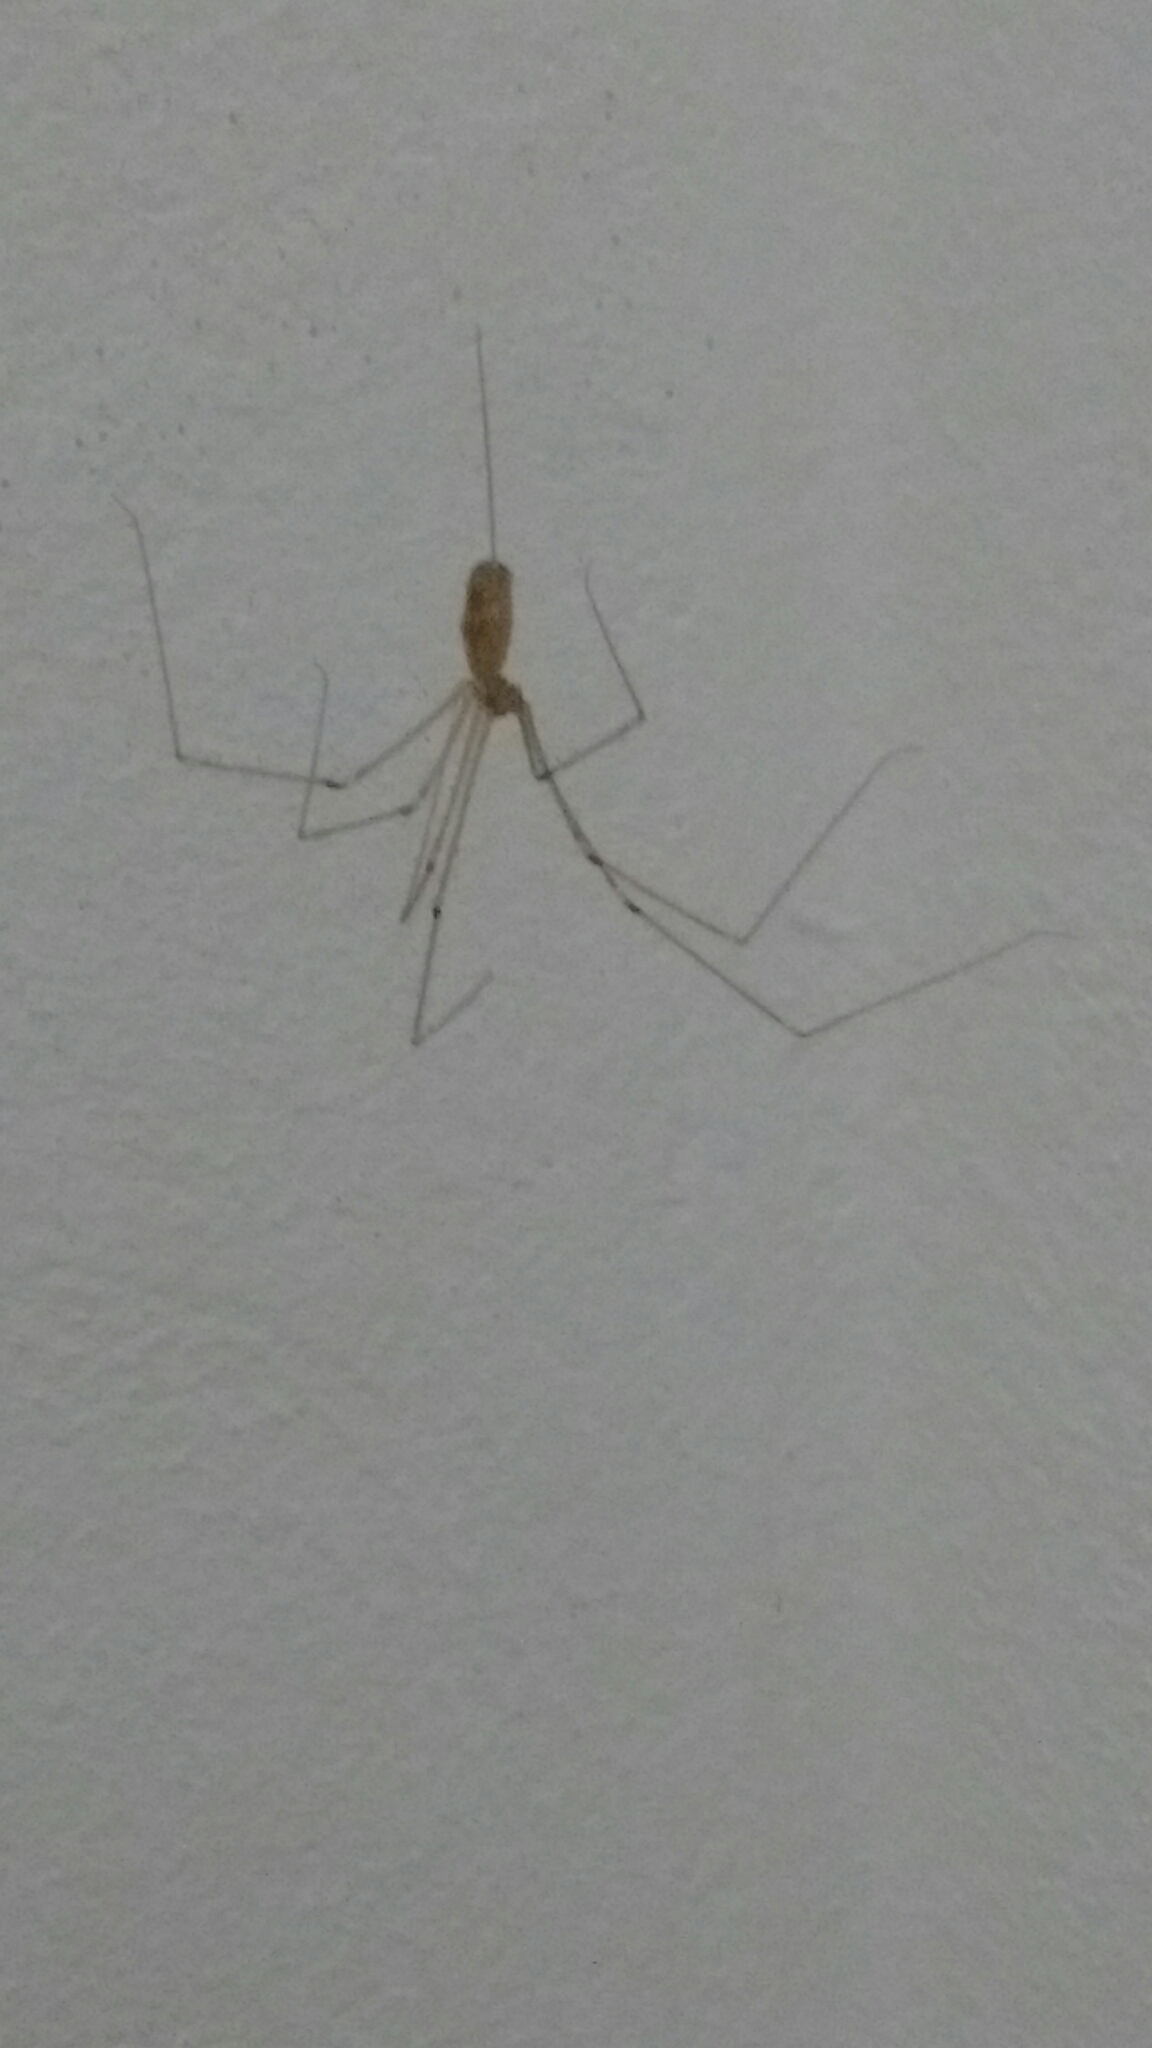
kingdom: Animalia
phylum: Arthropoda
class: Arachnida
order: Araneae
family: Pholcidae
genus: Pholcus
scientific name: Pholcus phalangioides
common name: Longbodied cellar spider
